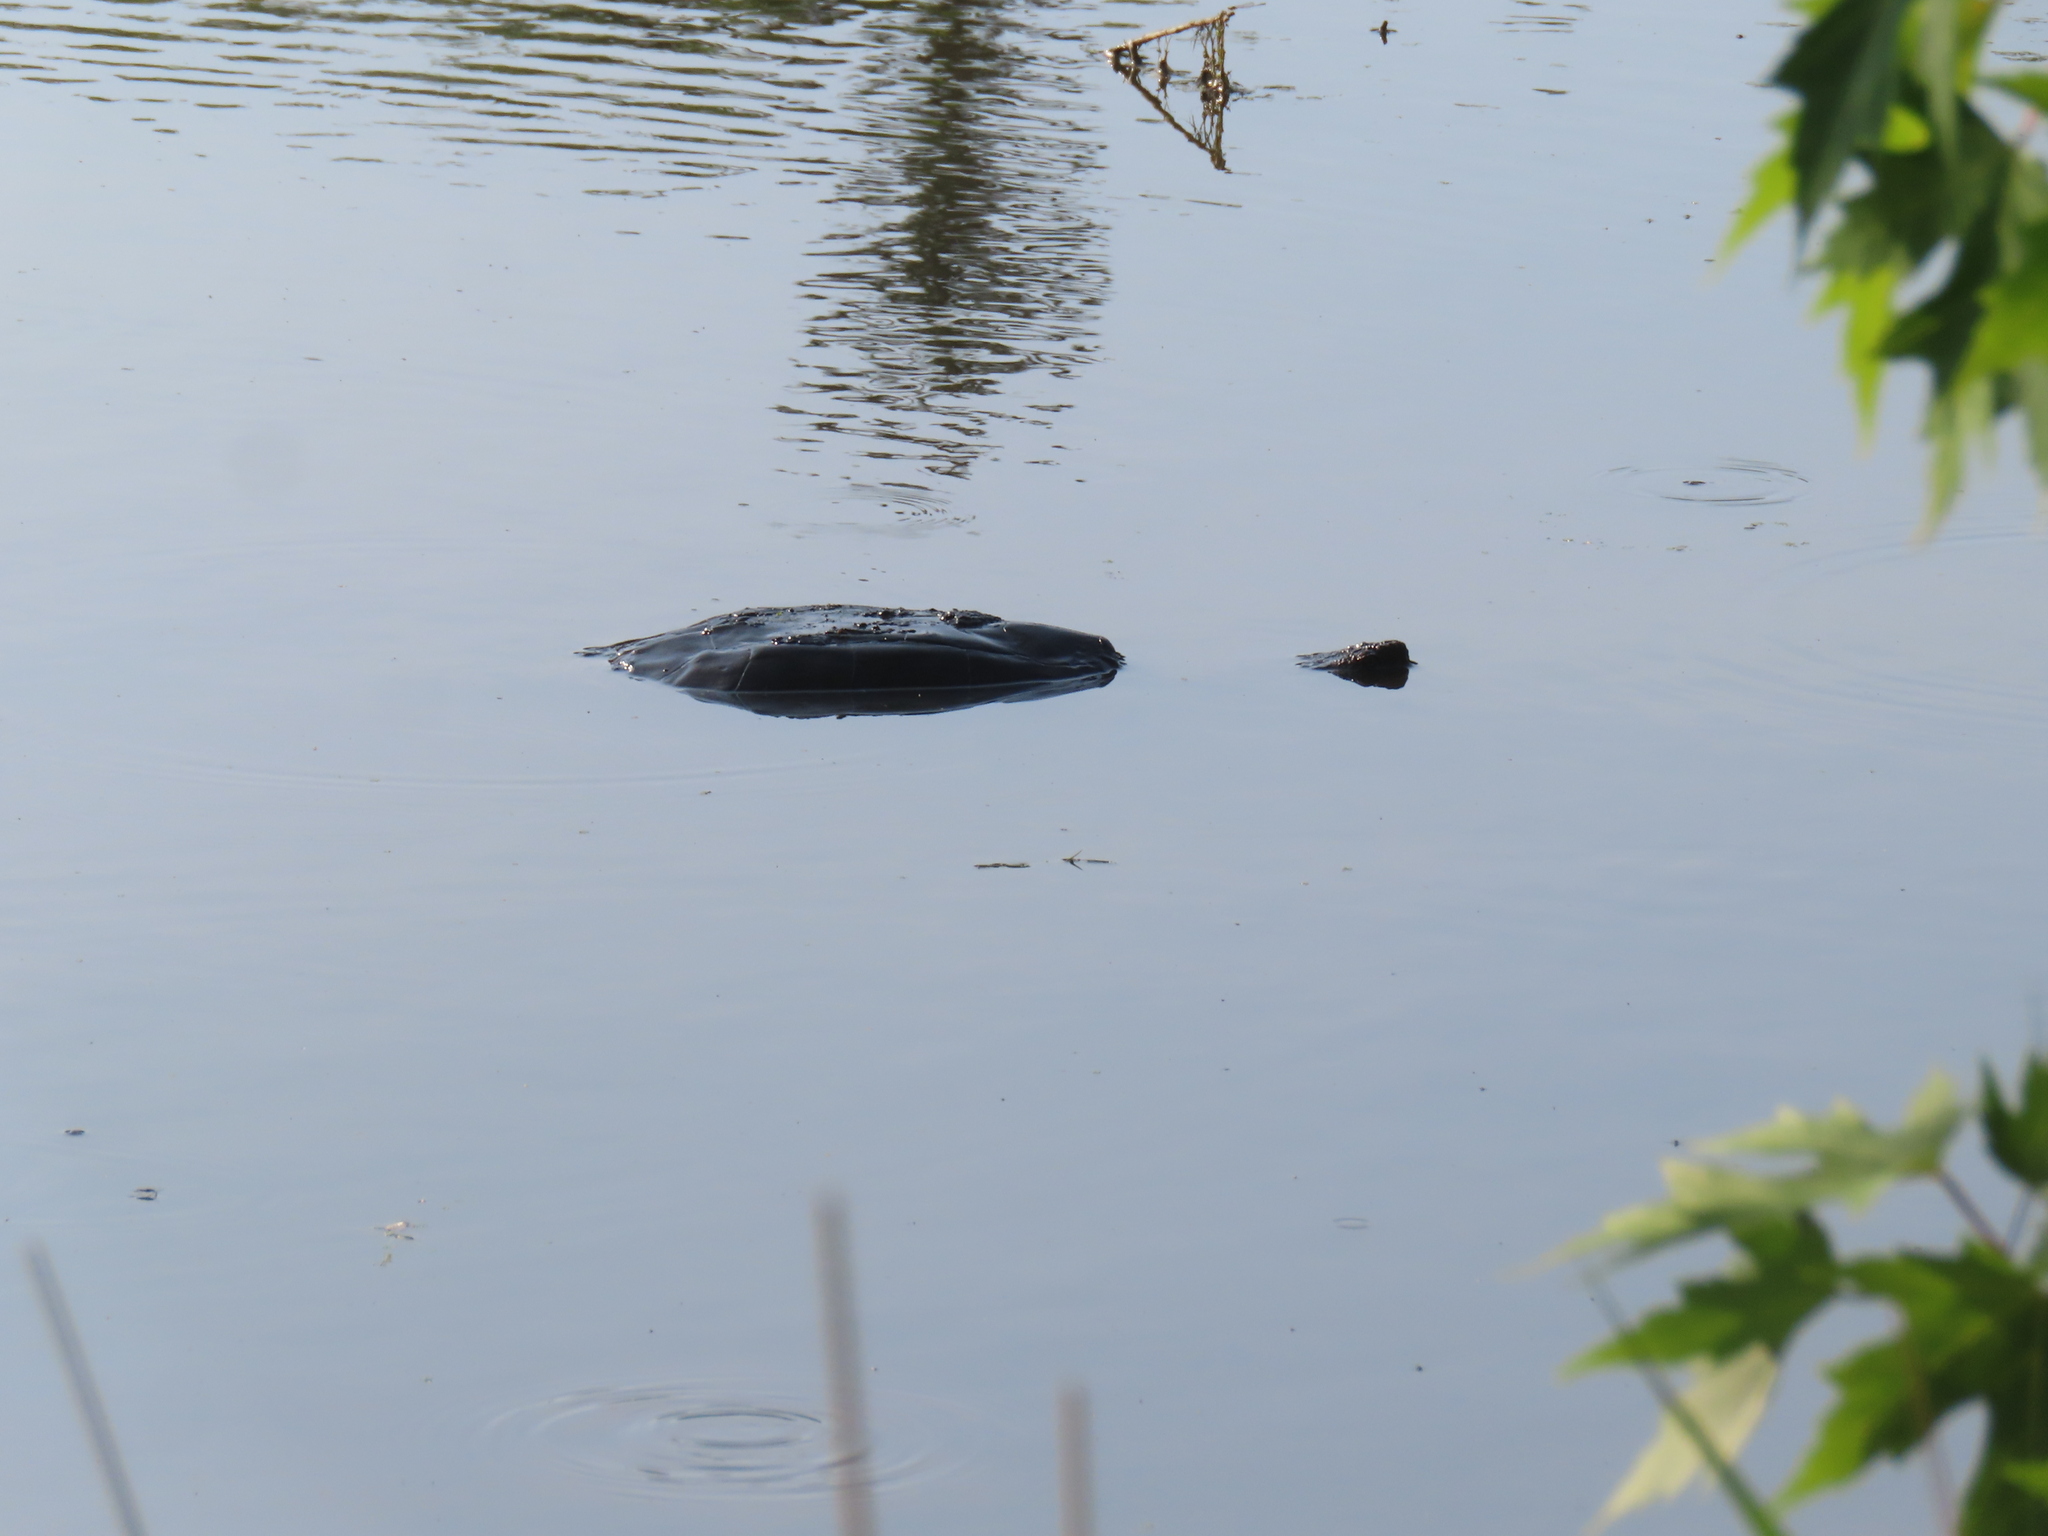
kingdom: Animalia
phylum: Chordata
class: Testudines
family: Chelydridae
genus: Chelydra
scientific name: Chelydra serpentina
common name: Common snapping turtle
